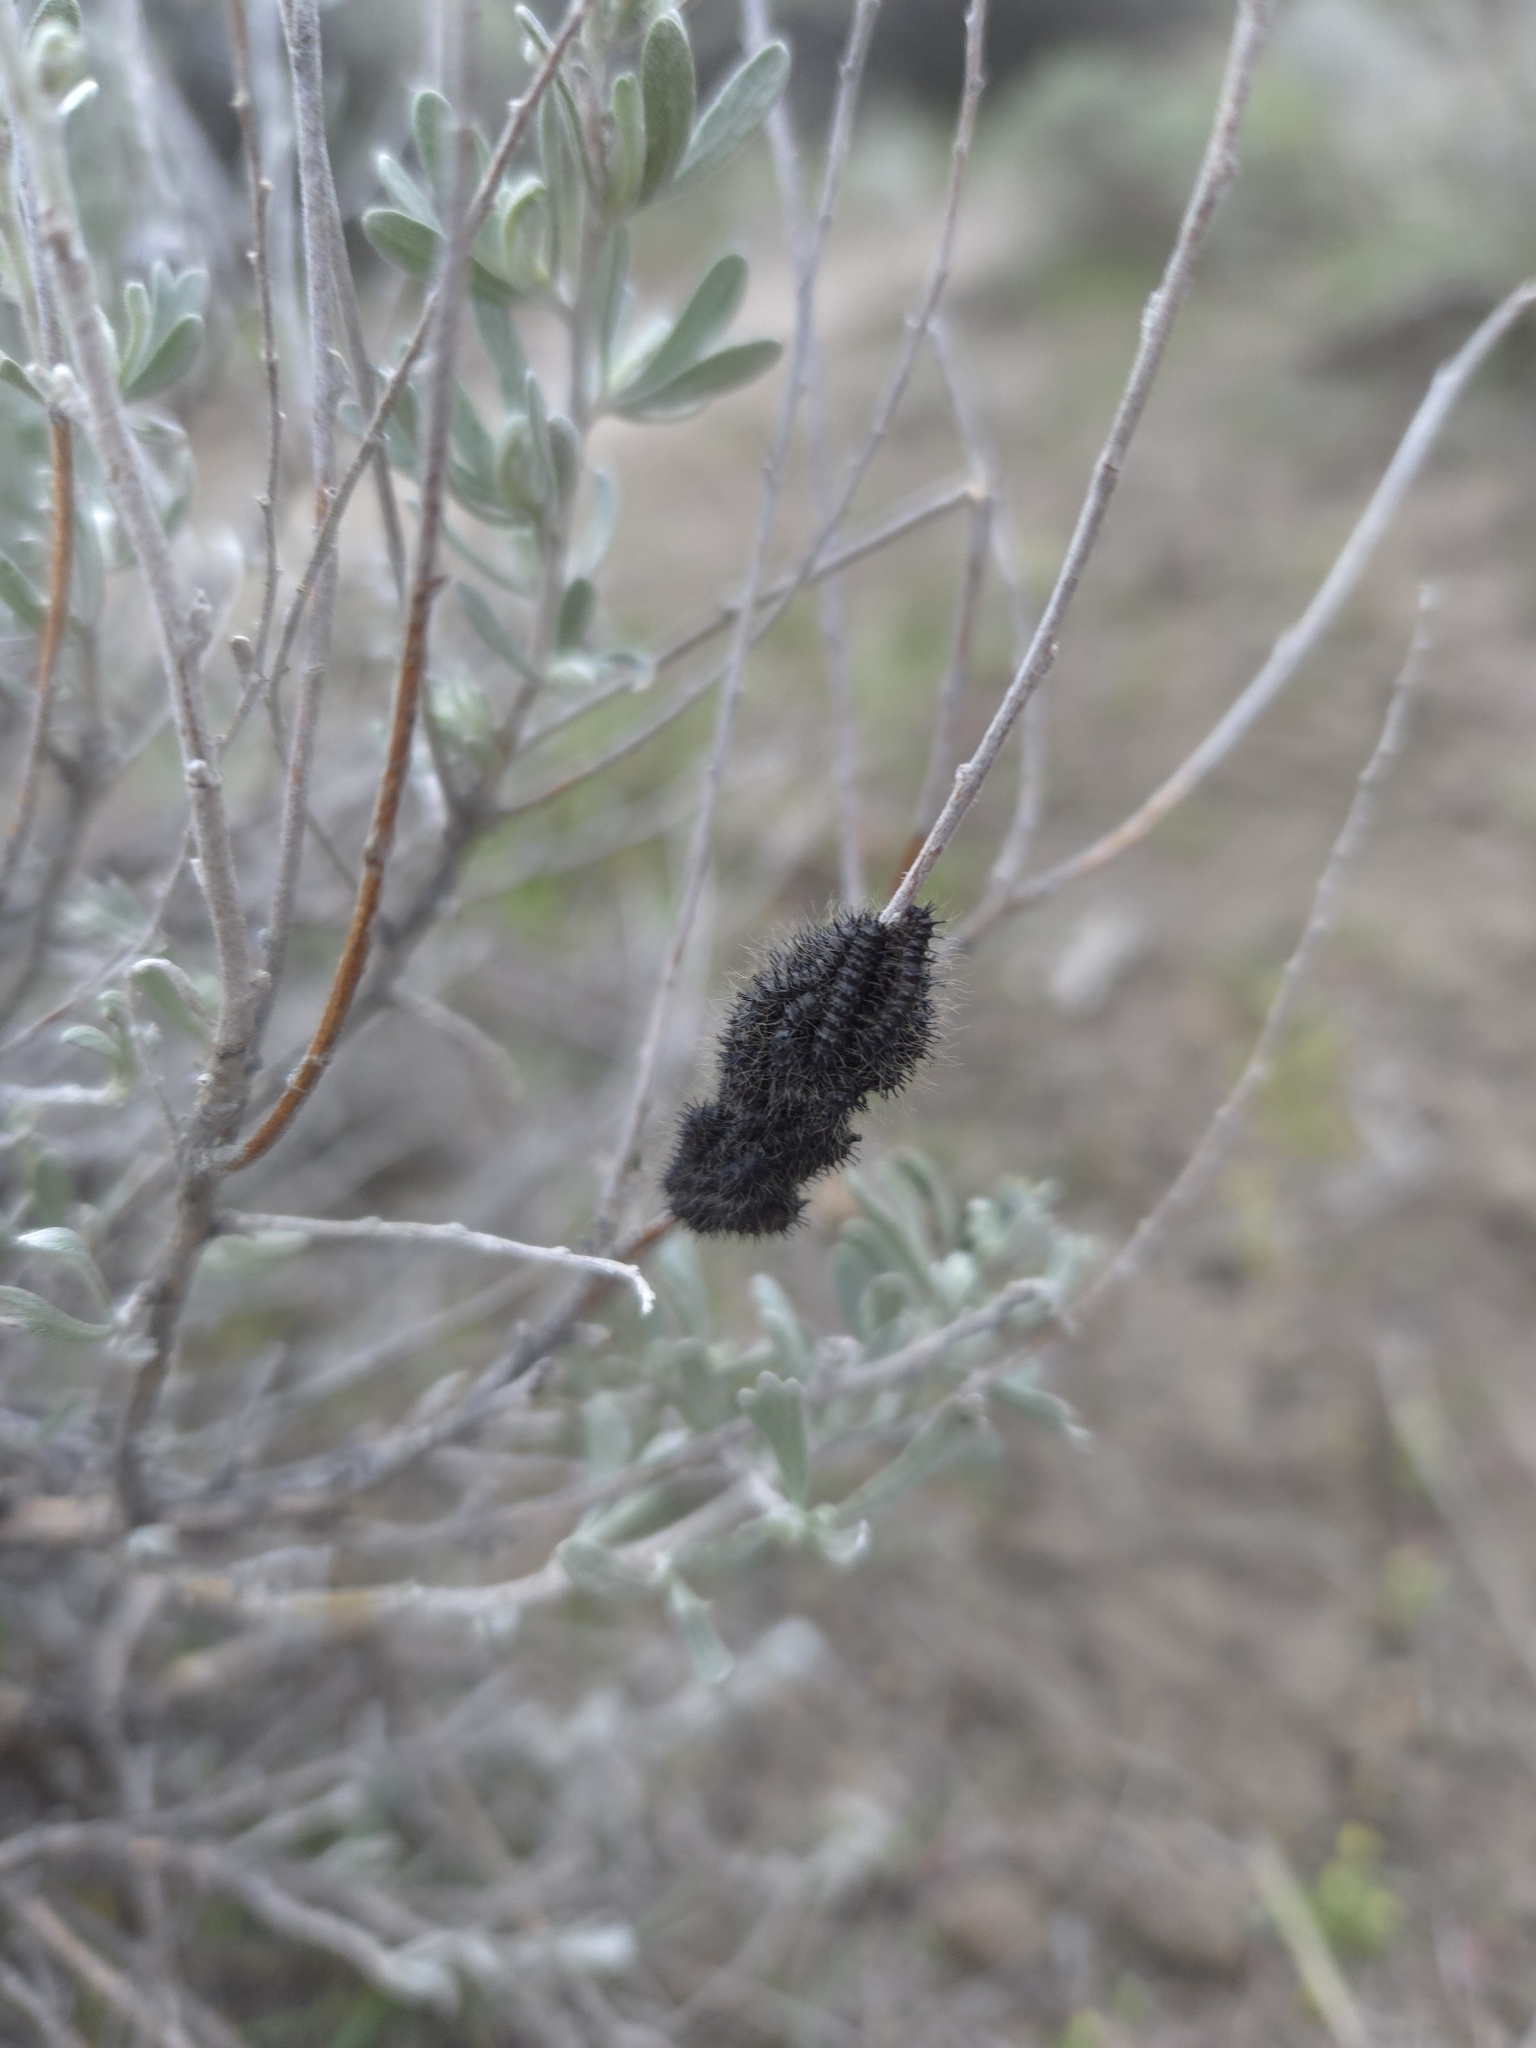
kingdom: Animalia
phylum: Arthropoda
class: Insecta
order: Lepidoptera
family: Saturniidae
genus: Hemileuca
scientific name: Hemileuca hera
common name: Hera sheepmoth
